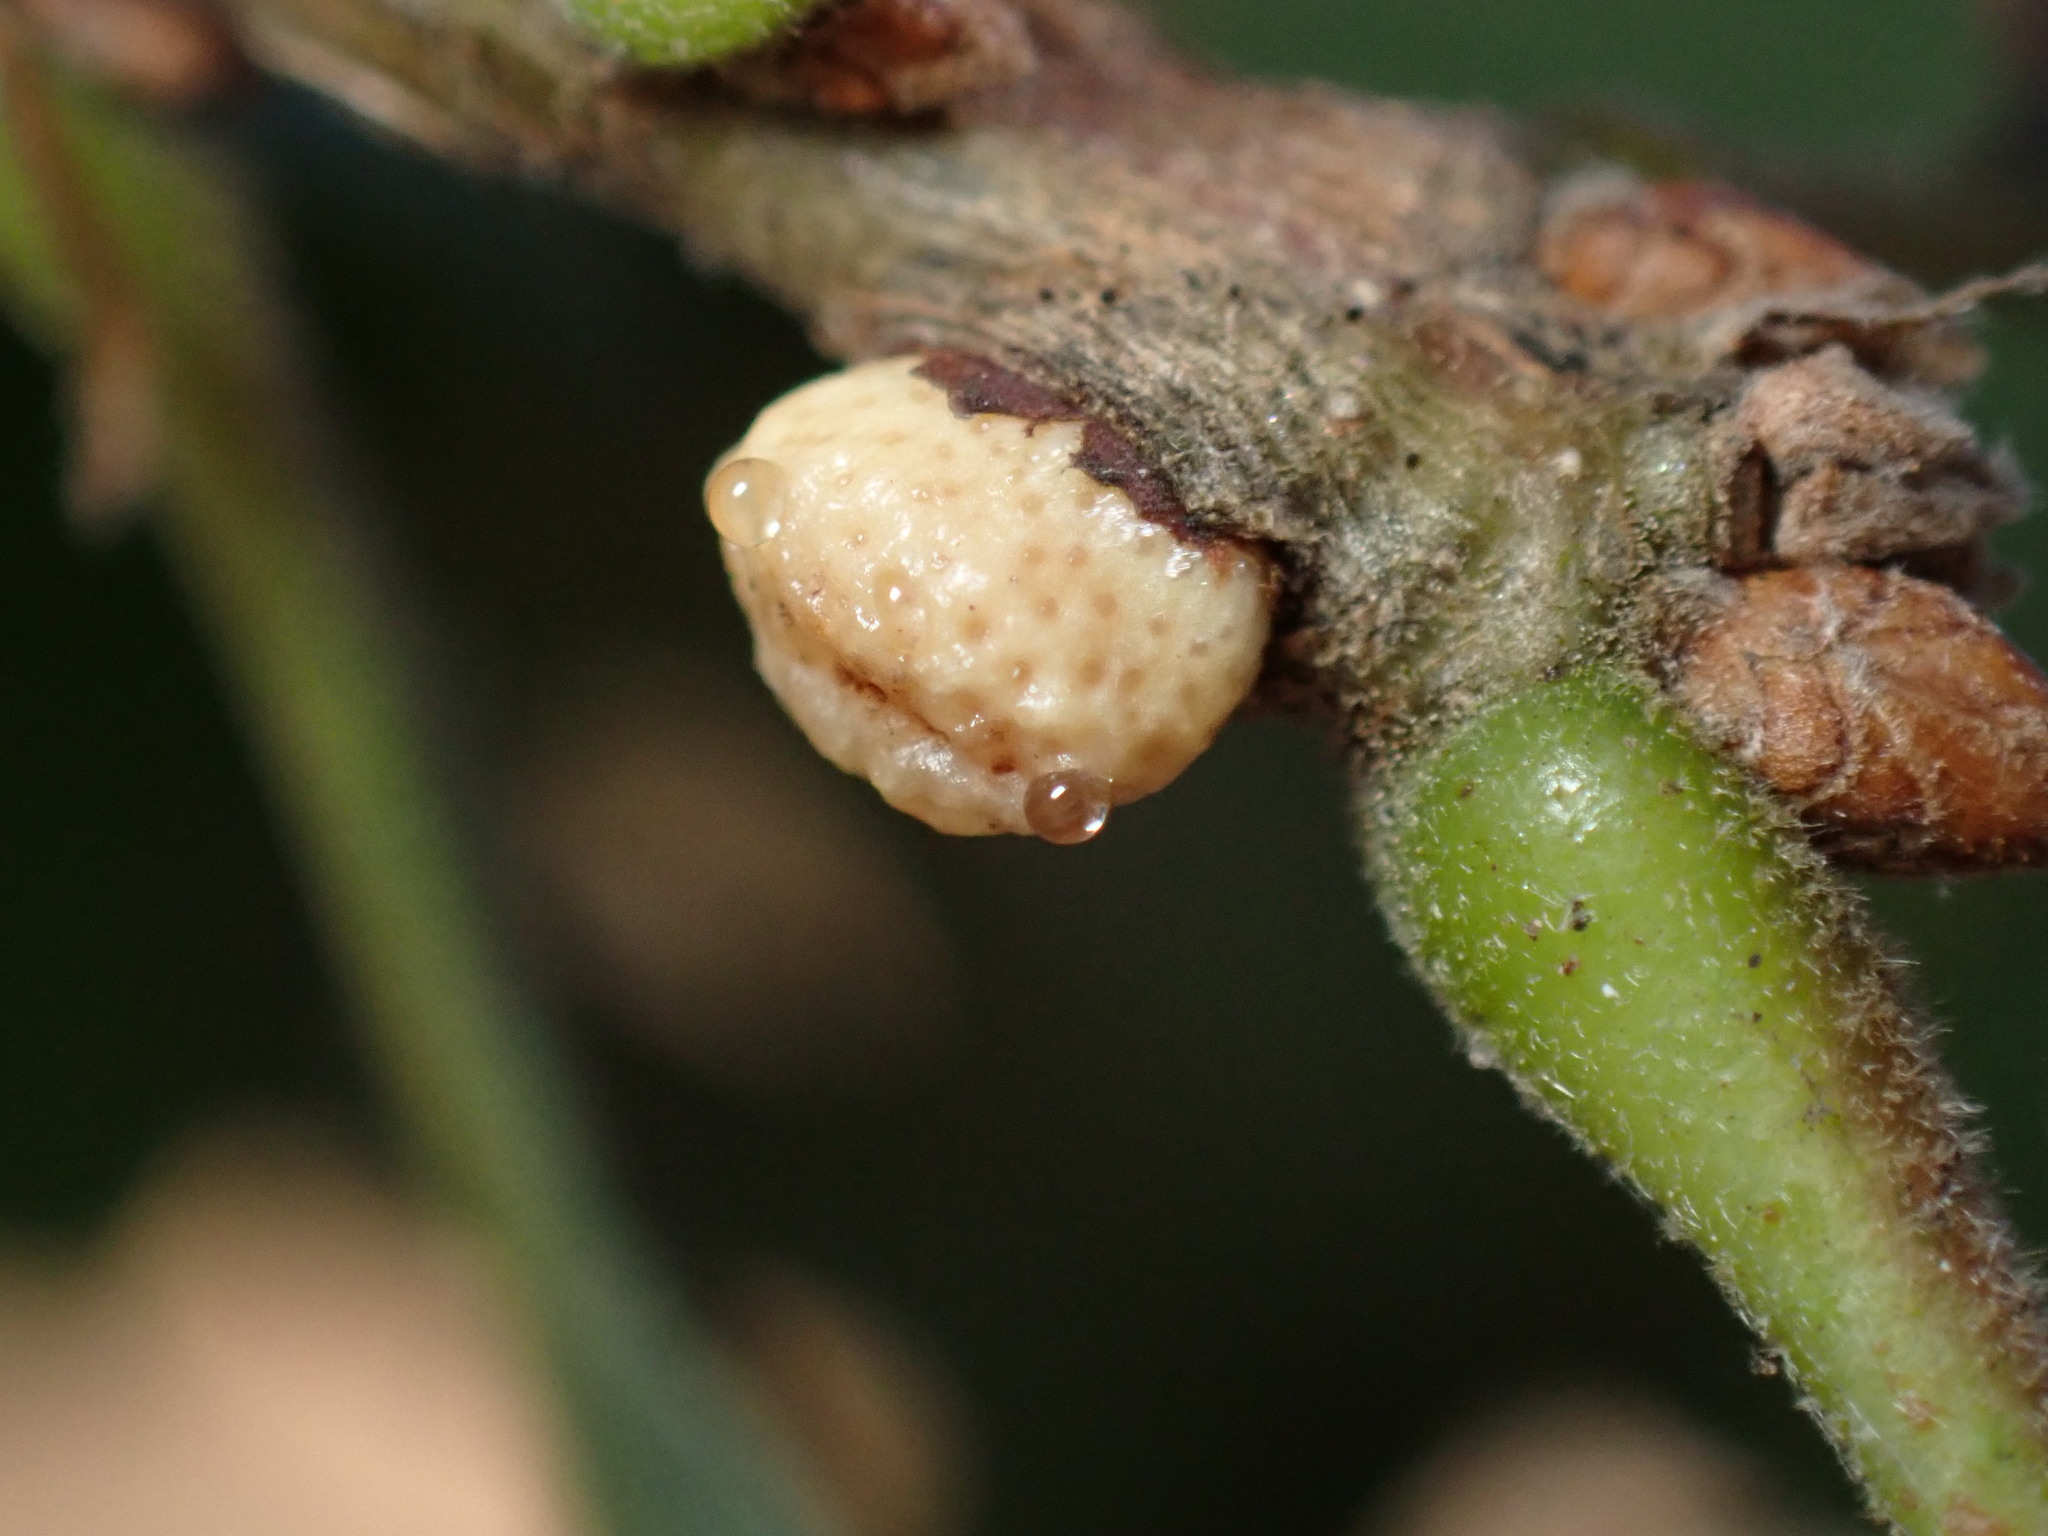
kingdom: Animalia
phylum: Arthropoda
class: Insecta
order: Hymenoptera
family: Cynipidae
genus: Disholcaspis
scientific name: Disholcaspis
